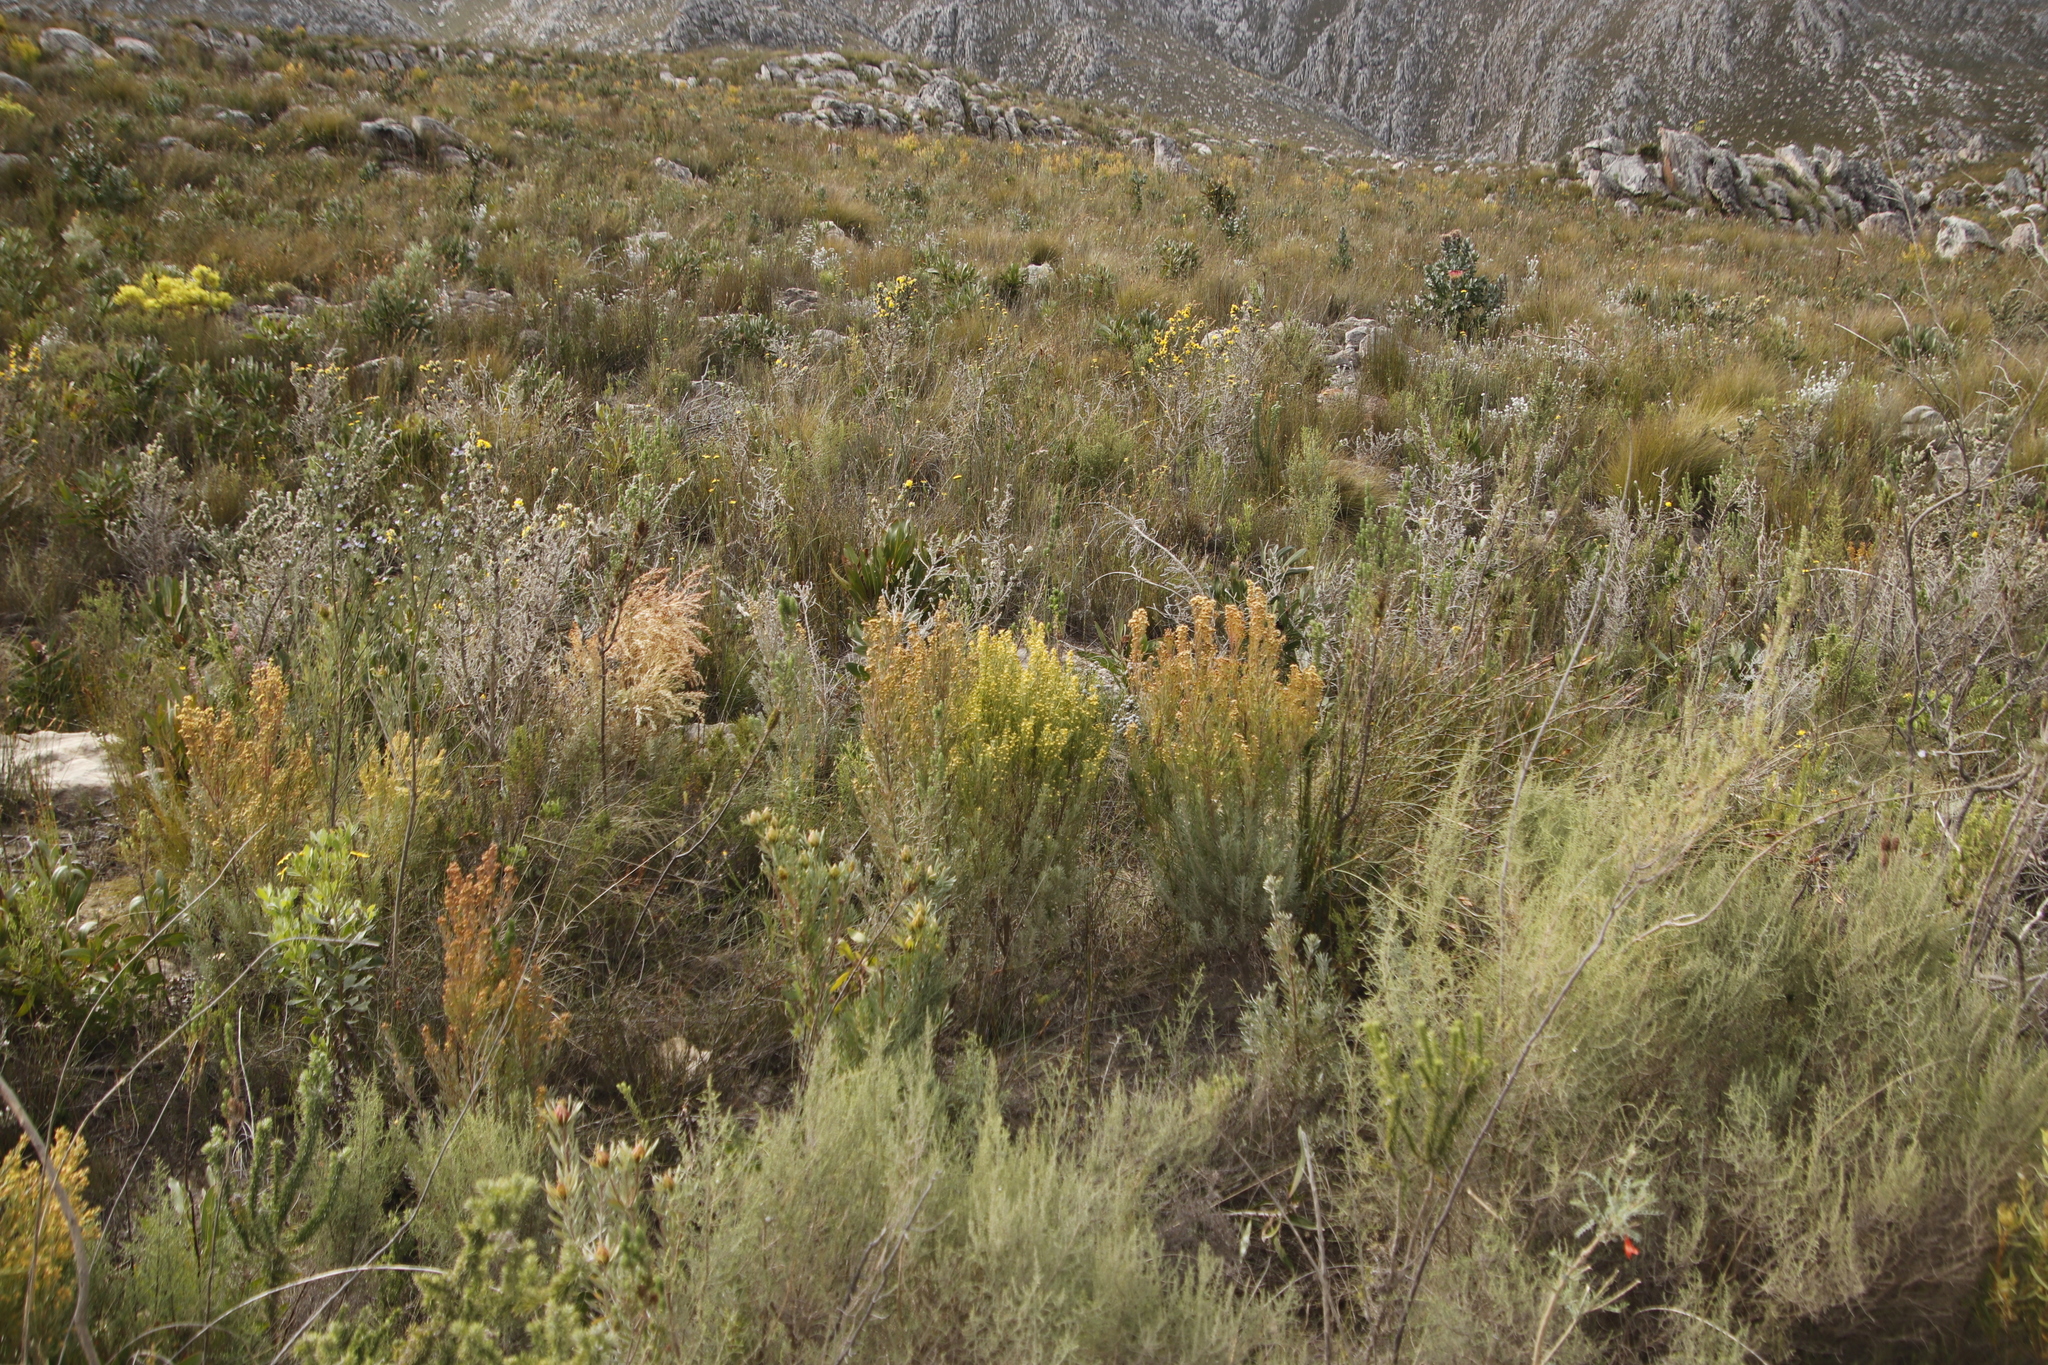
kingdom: Plantae
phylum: Tracheophyta
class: Magnoliopsida
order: Proteales
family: Proteaceae
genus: Leucadendron
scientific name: Leucadendron rubrum
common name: Spinning top
